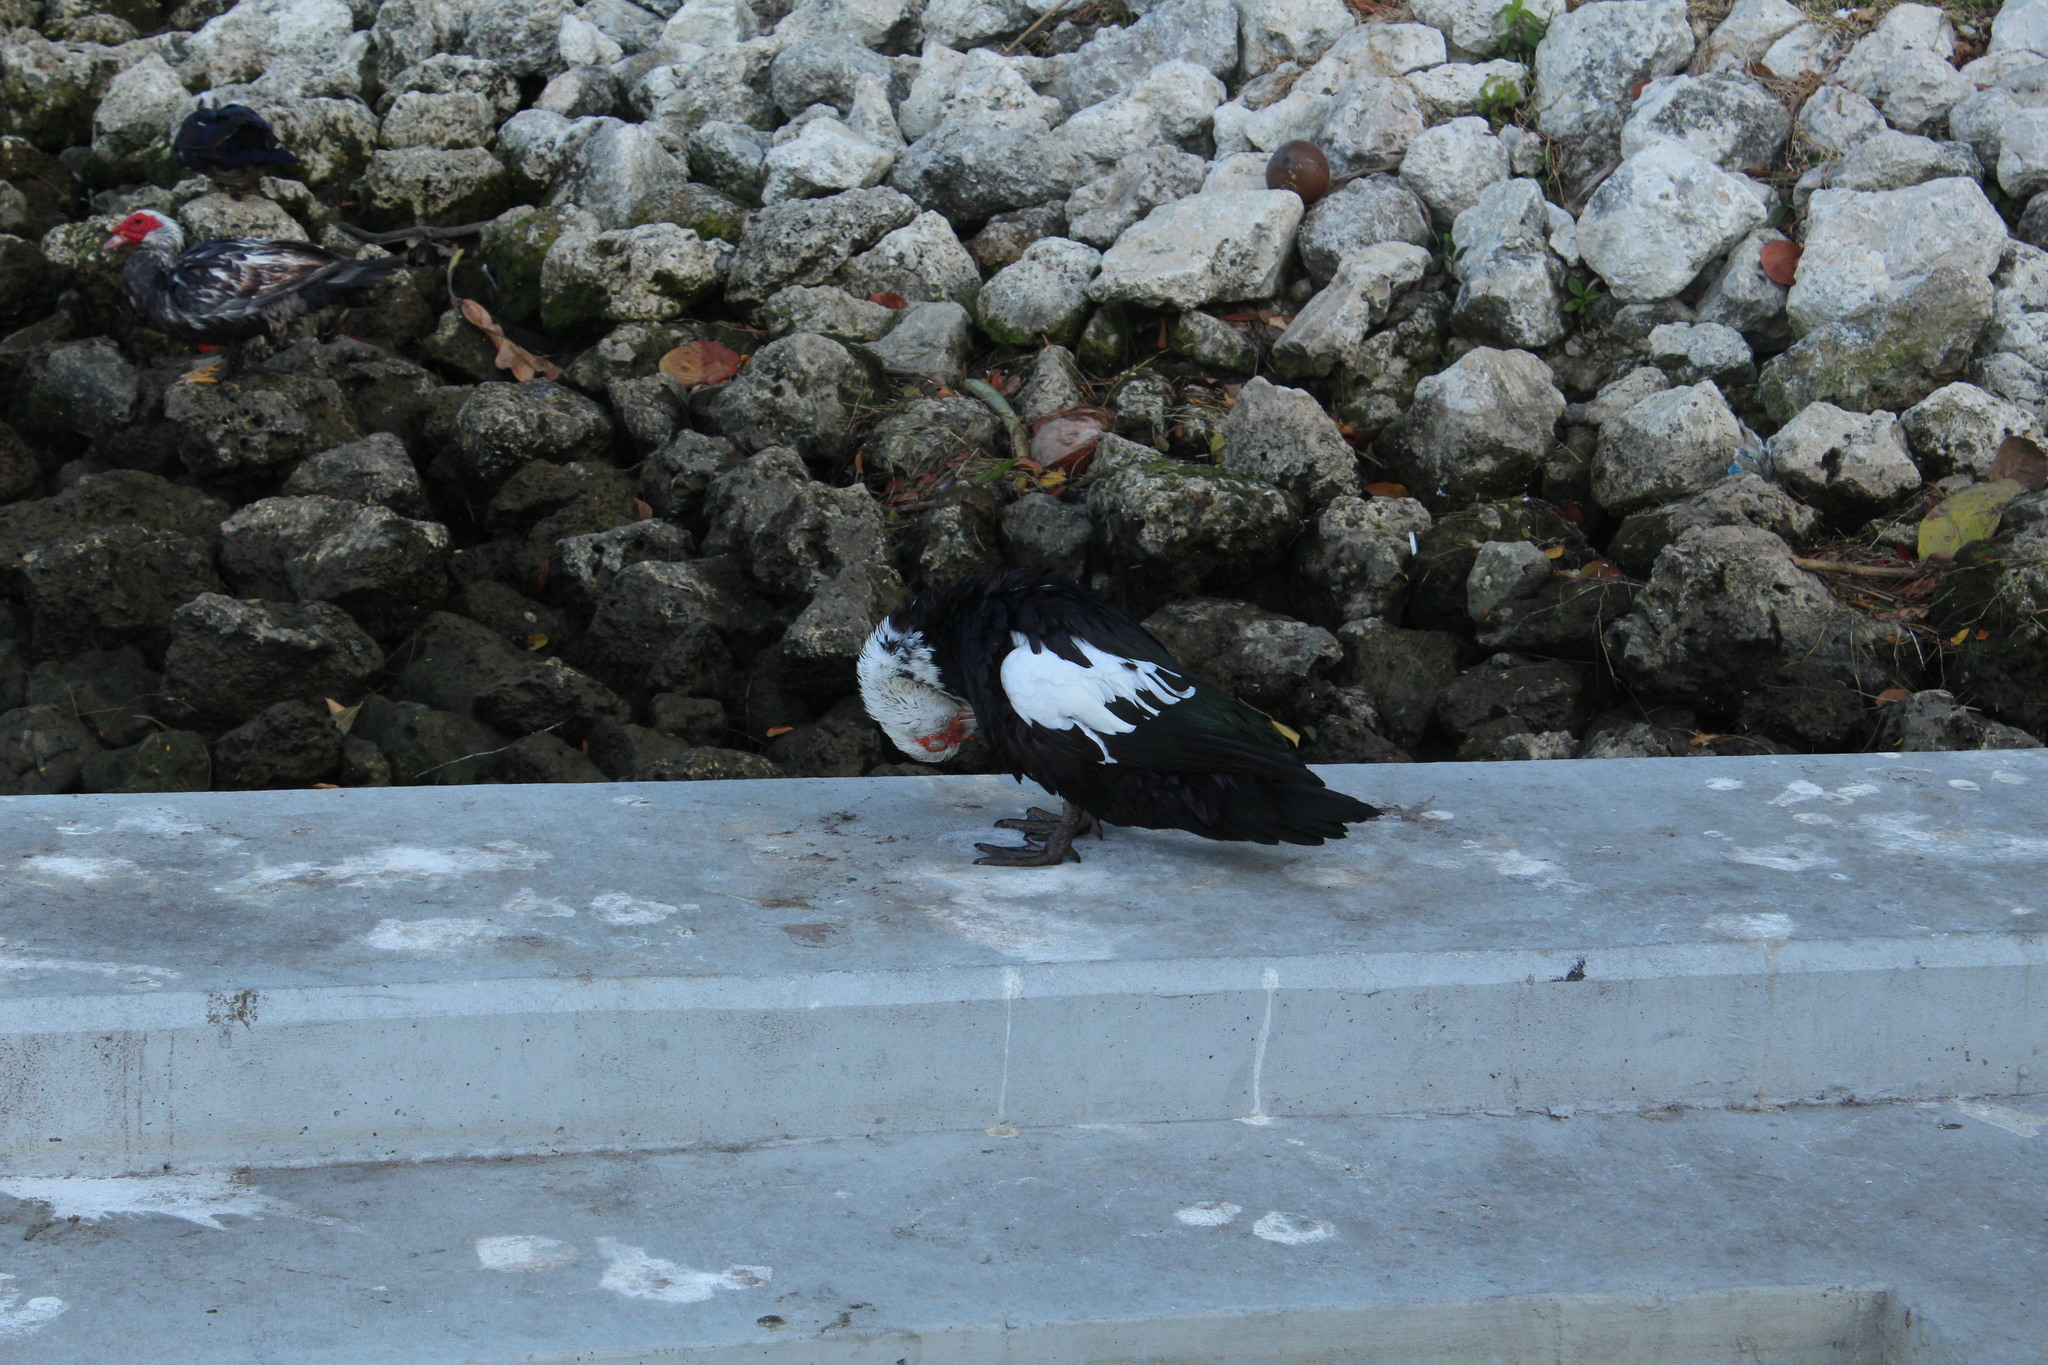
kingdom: Animalia
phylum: Chordata
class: Aves
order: Anseriformes
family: Anatidae
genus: Cairina
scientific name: Cairina moschata
